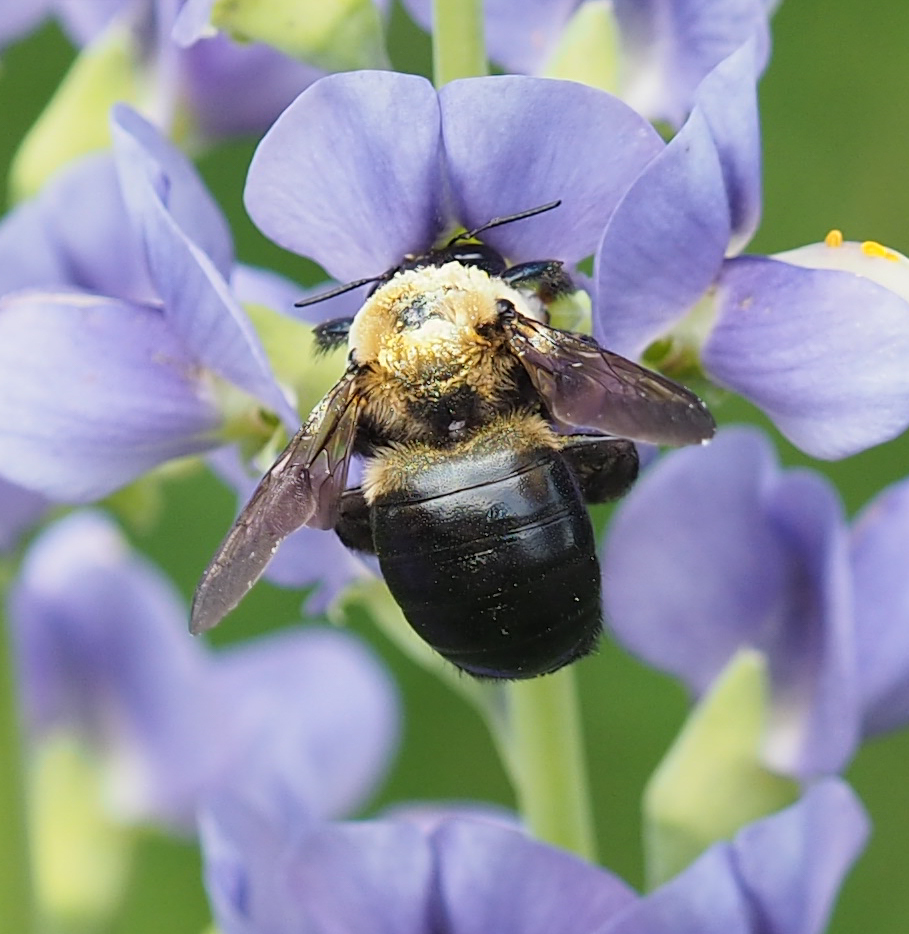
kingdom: Animalia
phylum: Arthropoda
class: Insecta
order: Hymenoptera
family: Apidae
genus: Xylocopa
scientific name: Xylocopa virginica
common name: Carpenter bee
